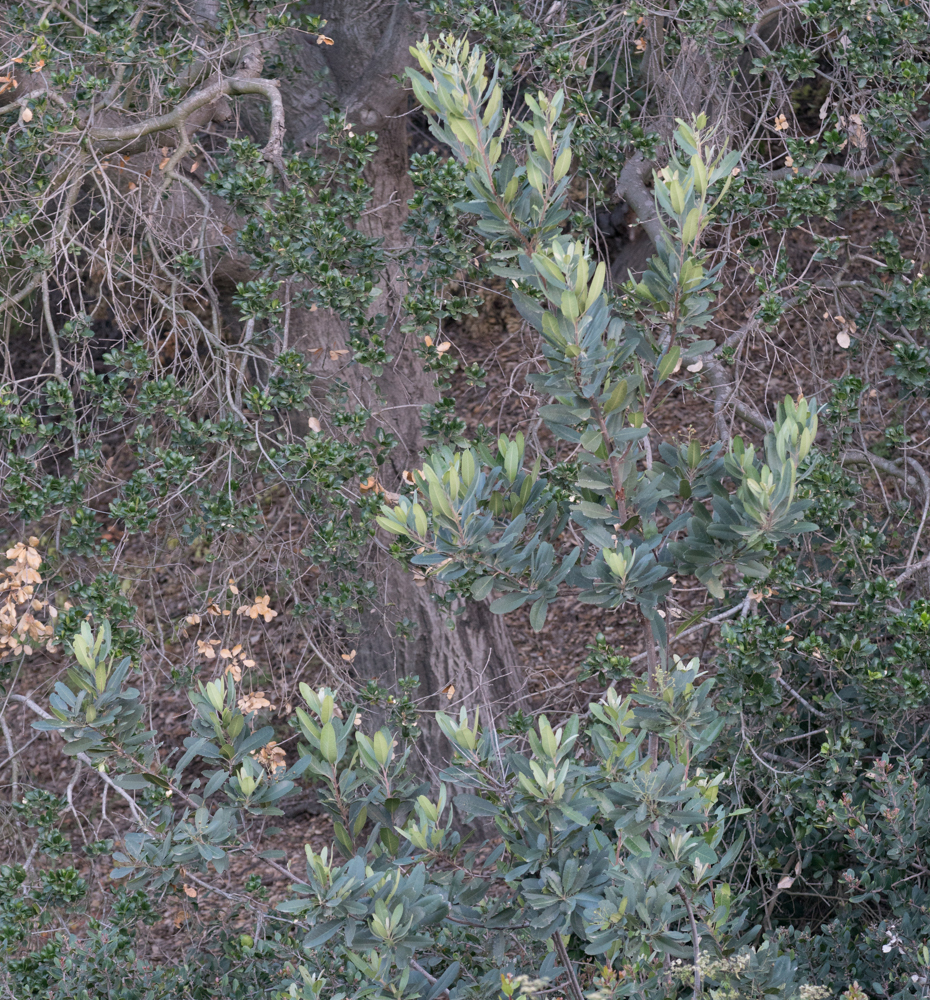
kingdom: Plantae
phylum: Tracheophyta
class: Magnoliopsida
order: Rosales
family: Rosaceae
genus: Heteromeles
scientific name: Heteromeles arbutifolia
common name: California-holly
